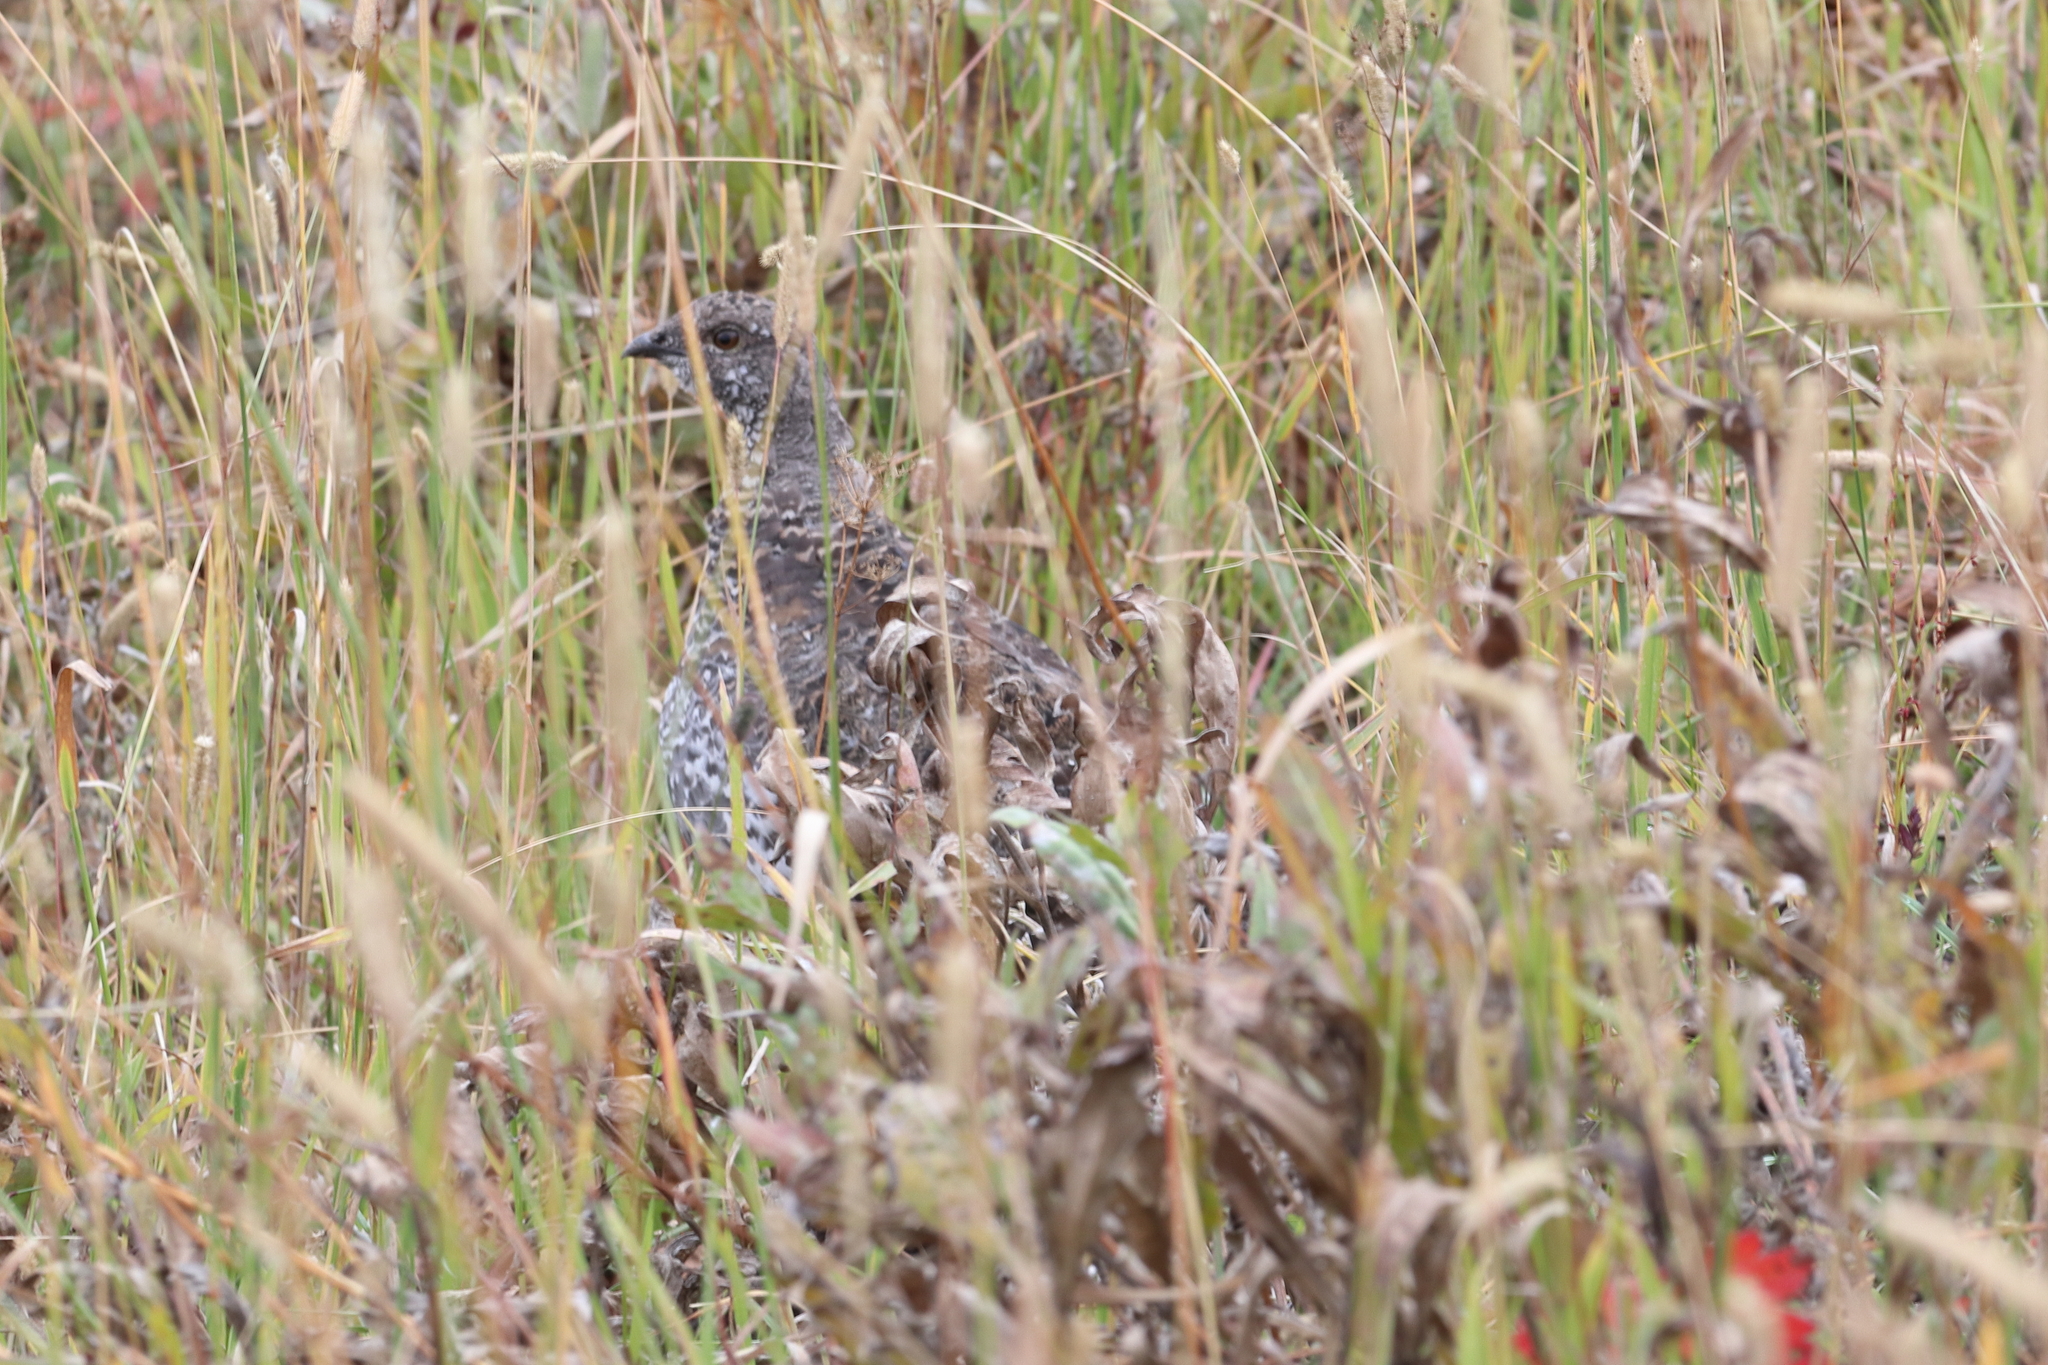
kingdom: Animalia
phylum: Chordata
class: Aves
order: Galliformes
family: Phasianidae
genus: Dendragapus
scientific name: Dendragapus obscurus
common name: Dusky grouse
